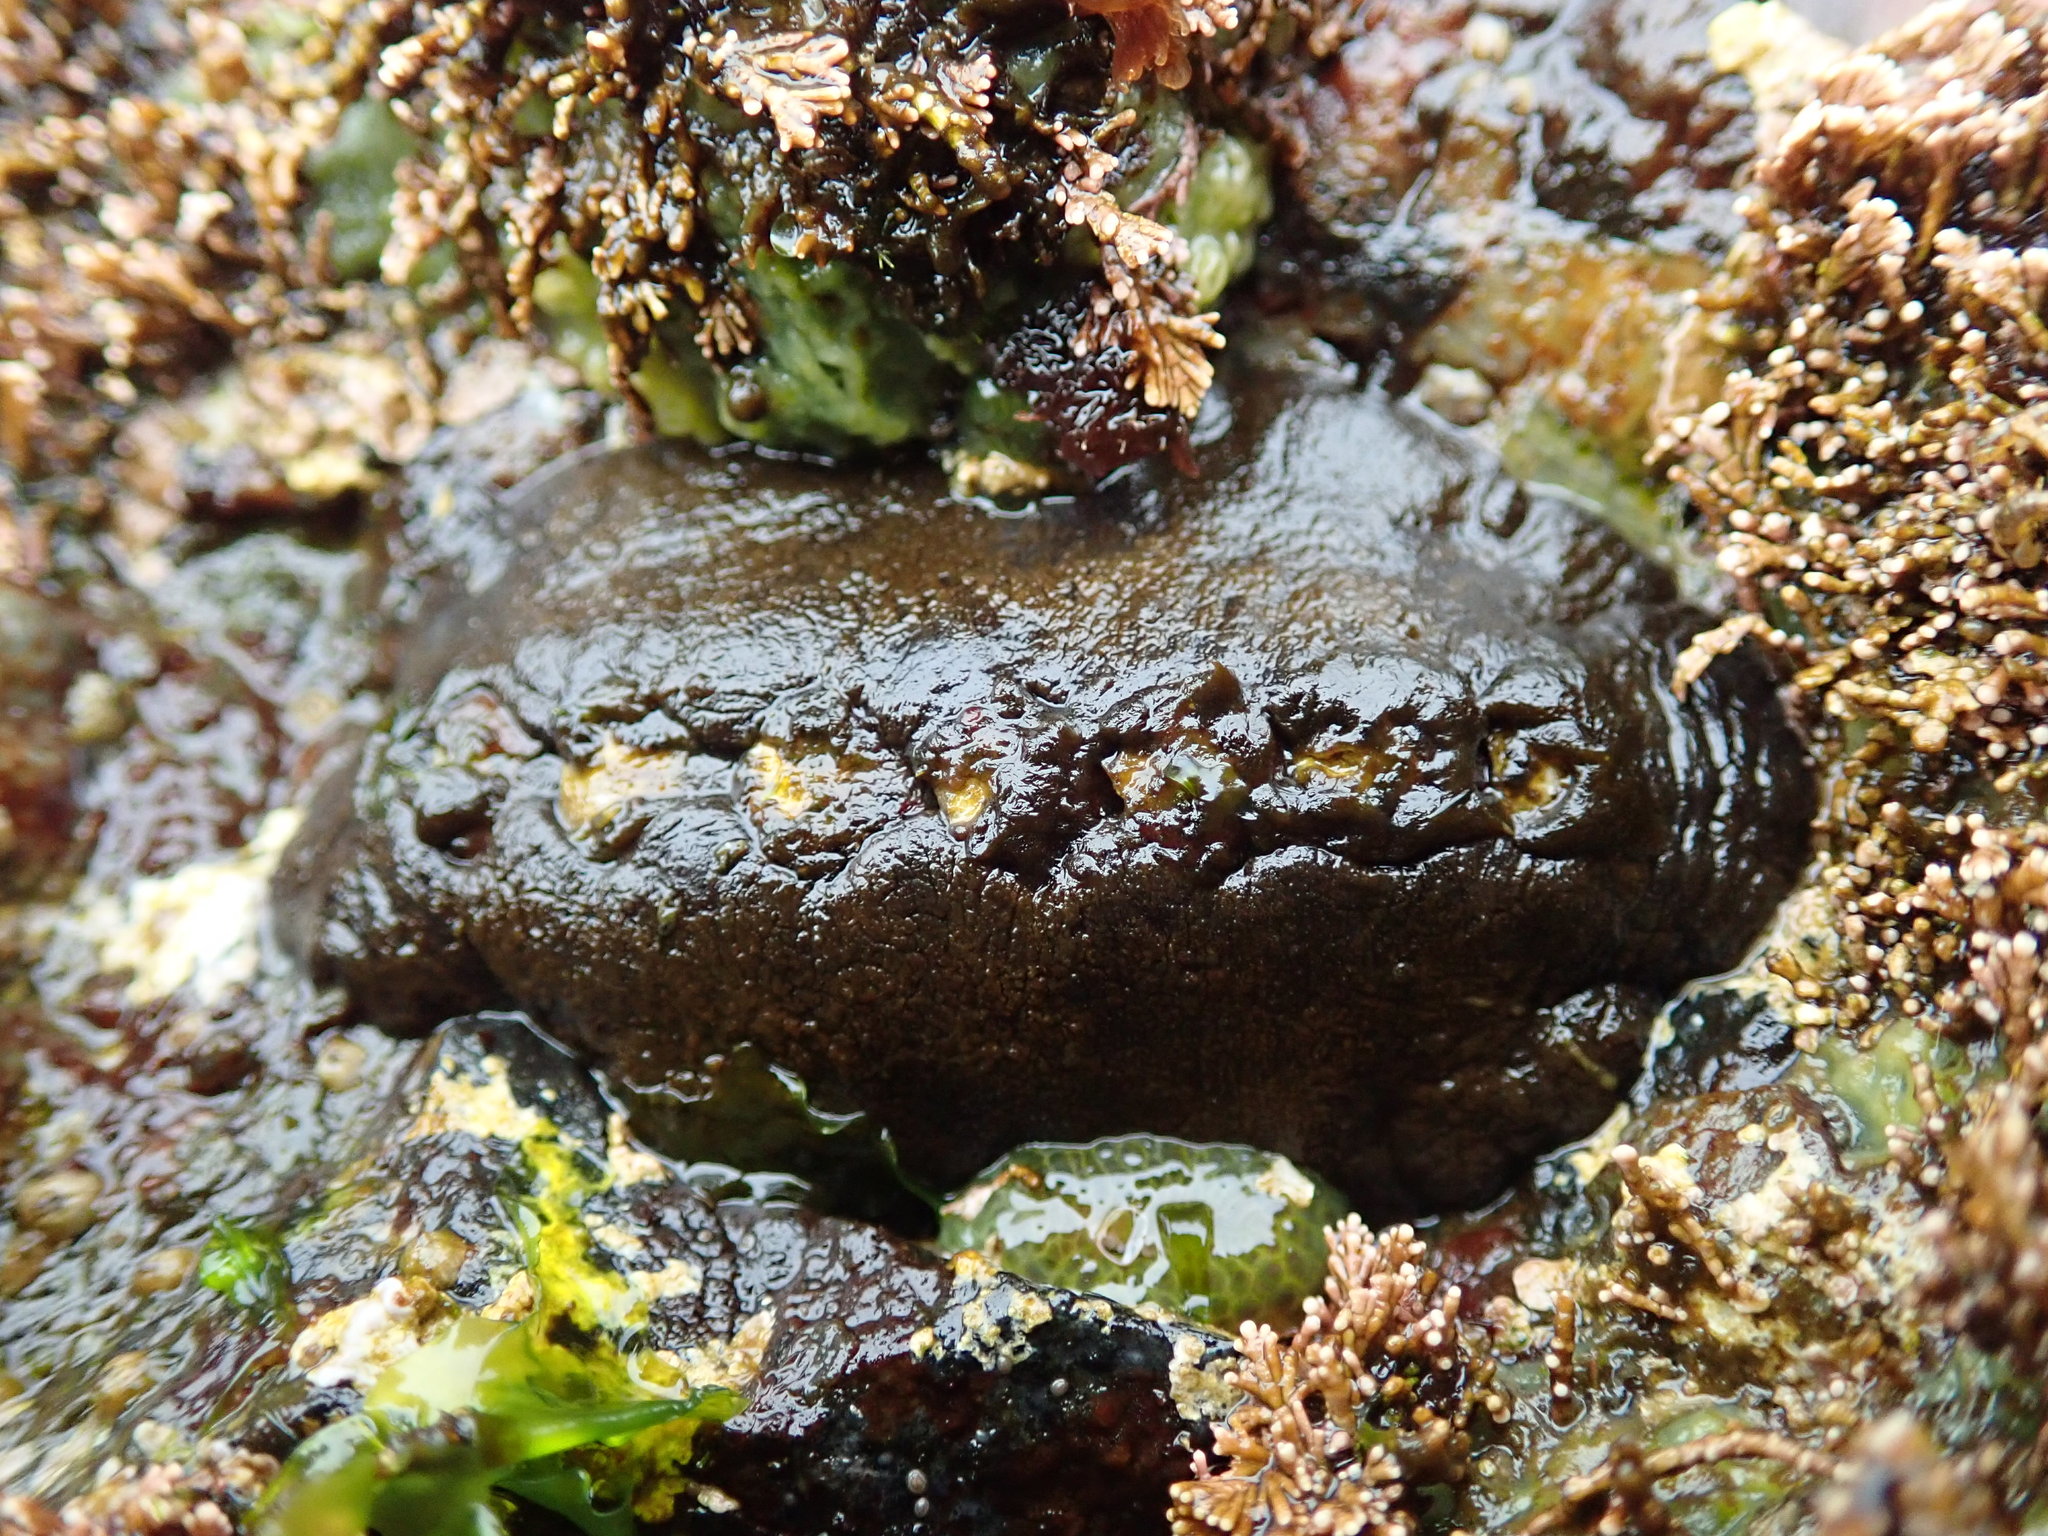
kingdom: Animalia
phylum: Mollusca
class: Polyplacophora
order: Chitonida
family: Mopaliidae
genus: Katharina
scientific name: Katharina tunicata
